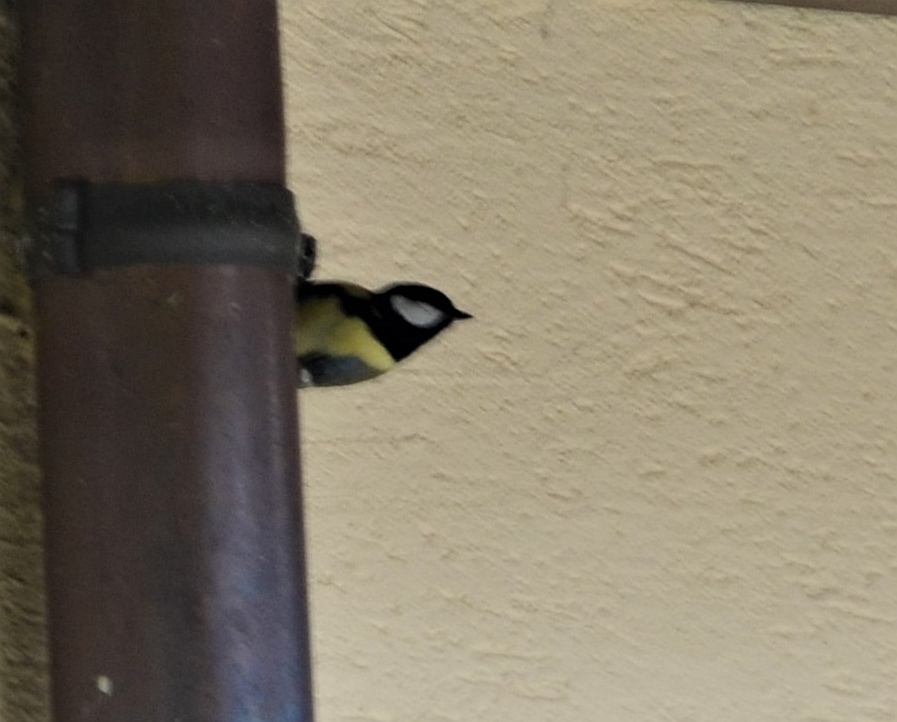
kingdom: Animalia
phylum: Chordata
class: Aves
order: Passeriformes
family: Paridae
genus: Parus
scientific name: Parus major
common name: Great tit
